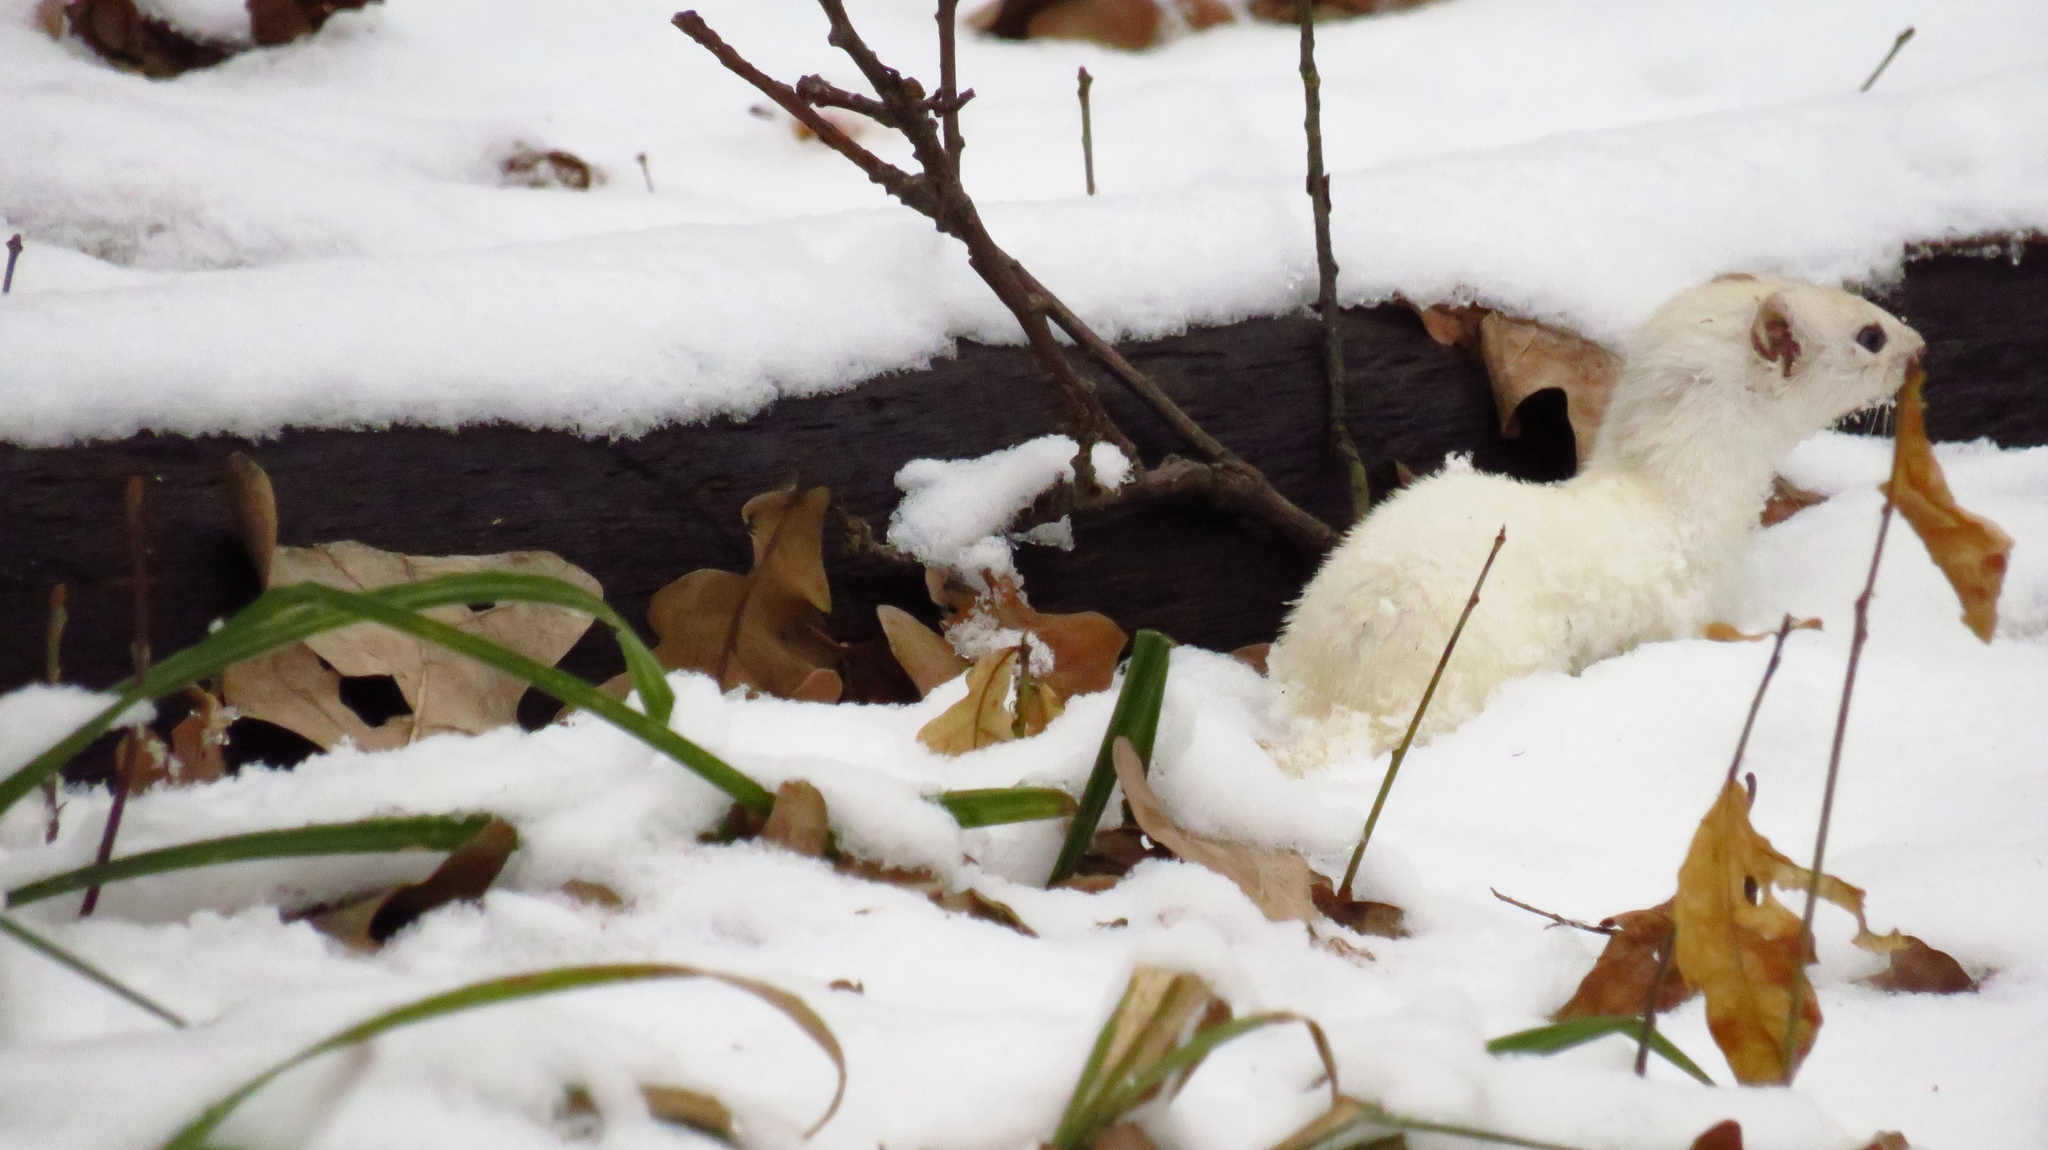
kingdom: Animalia
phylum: Chordata
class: Mammalia
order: Carnivora
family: Mustelidae
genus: Mustela
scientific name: Mustela nivalis
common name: Least weasel
